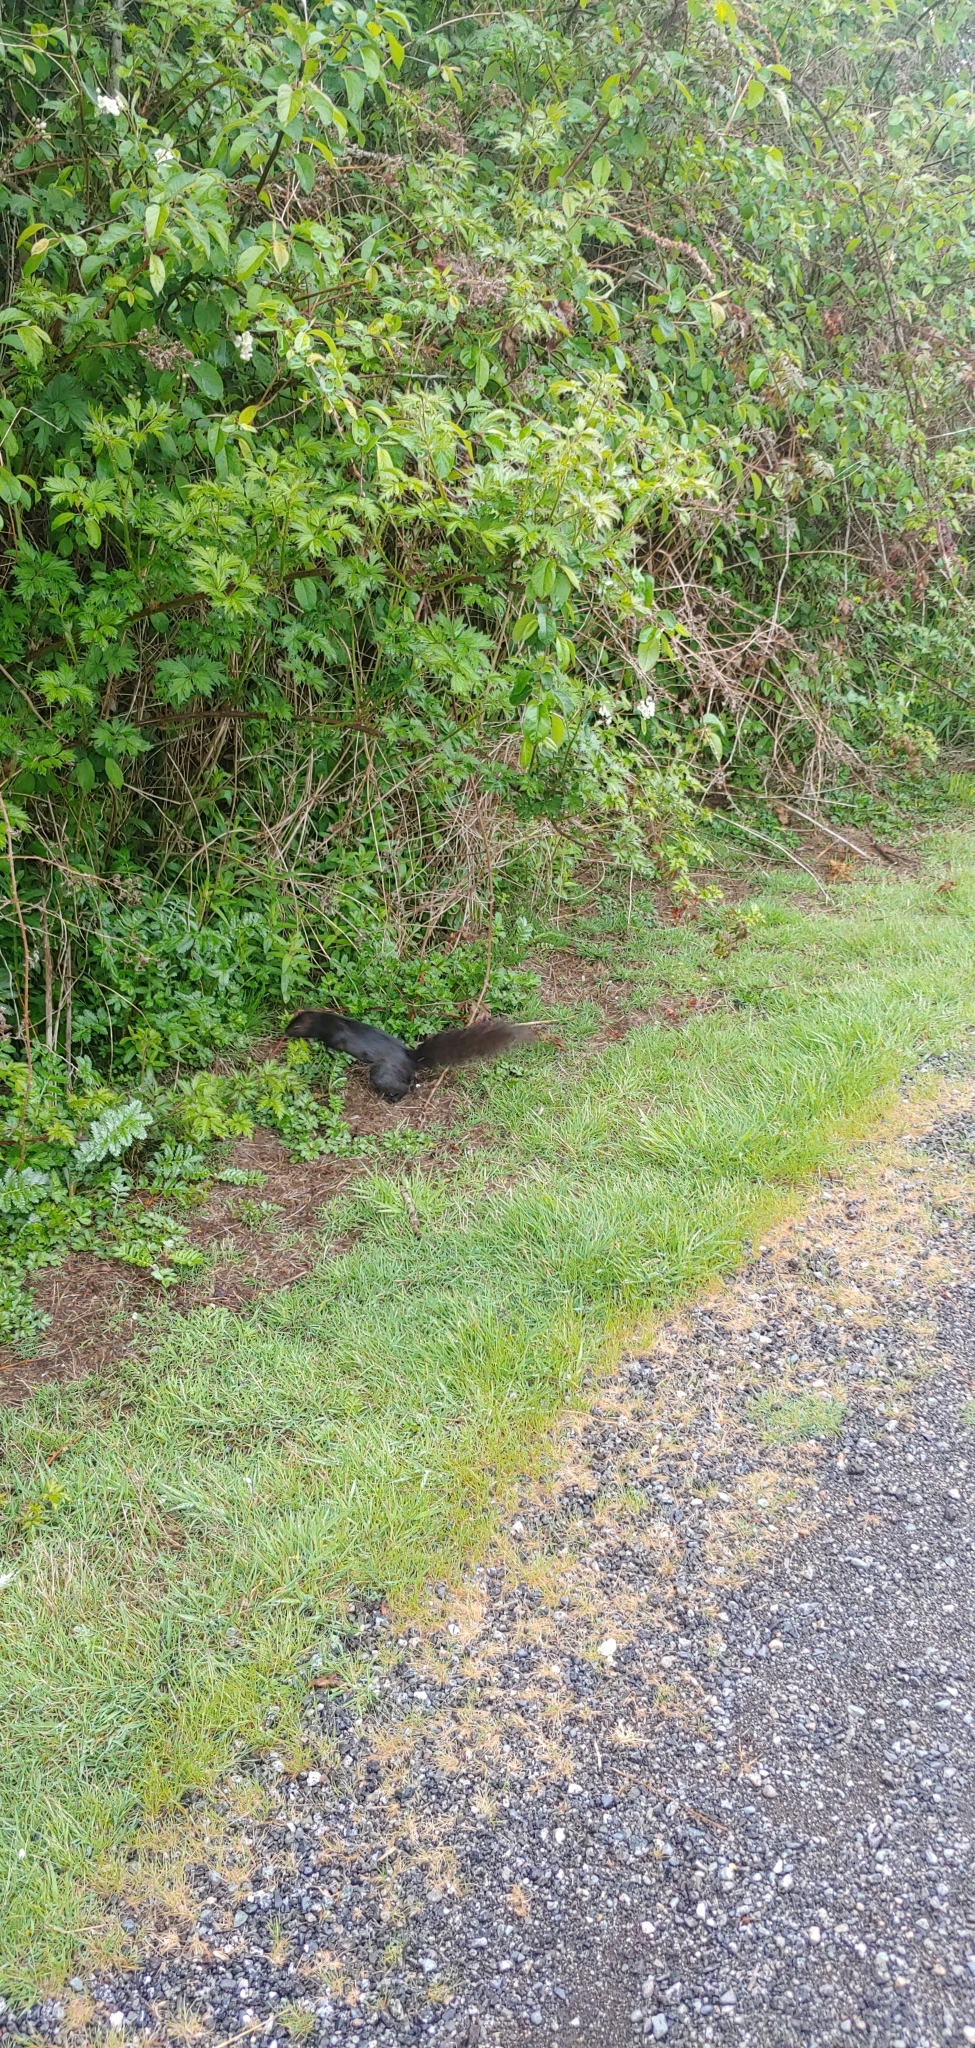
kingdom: Animalia
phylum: Chordata
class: Mammalia
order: Rodentia
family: Sciuridae
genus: Sciurus
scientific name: Sciurus carolinensis
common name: Eastern gray squirrel
